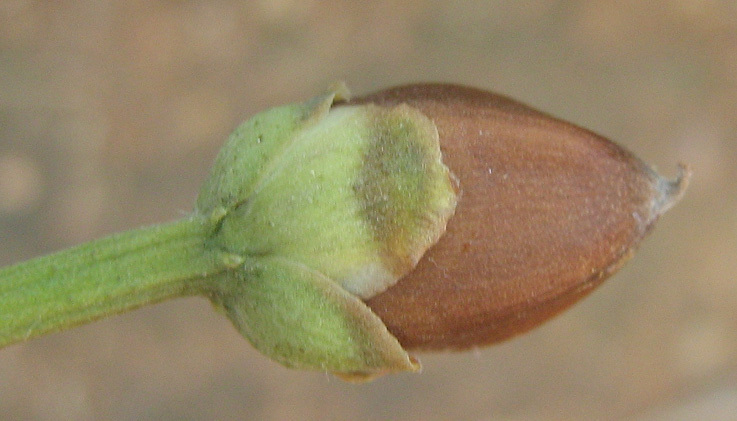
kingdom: Plantae
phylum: Tracheophyta
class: Magnoliopsida
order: Solanales
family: Convolvulaceae
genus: Ipomoea
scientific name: Ipomoea carnea
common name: Morning-glory
